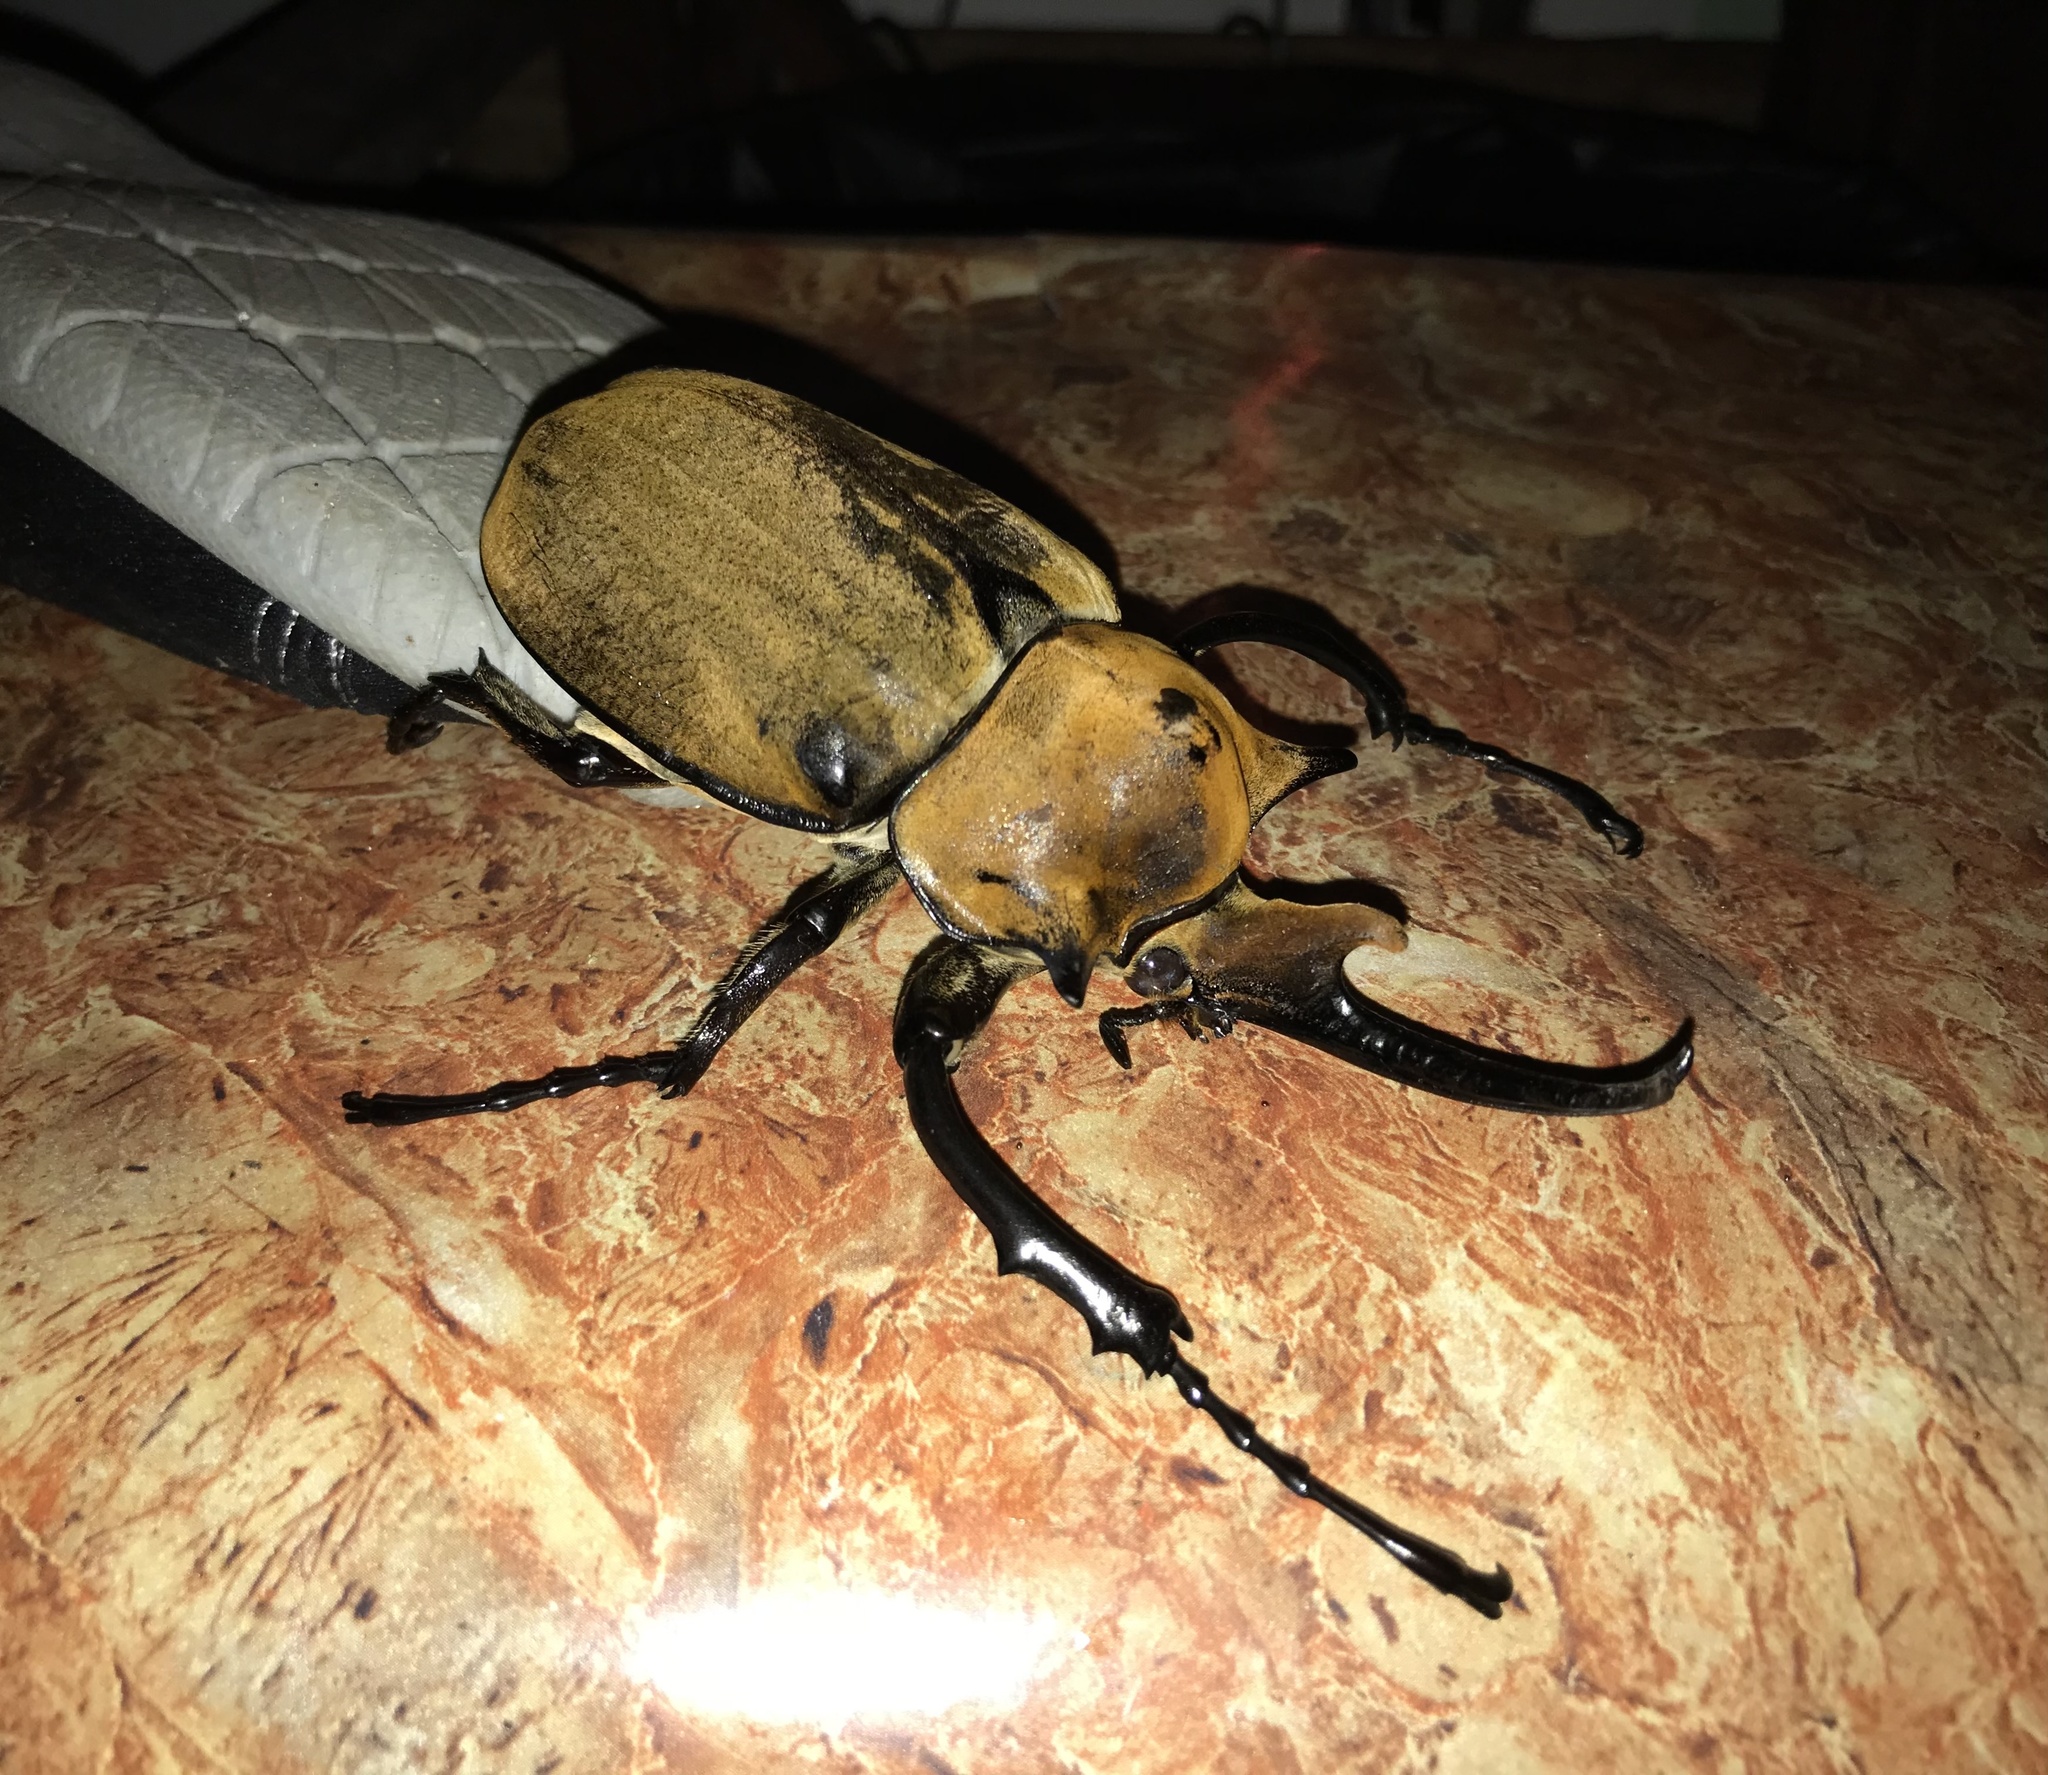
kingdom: Animalia
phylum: Arthropoda
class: Insecta
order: Coleoptera
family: Scarabaeidae
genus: Megasoma
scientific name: Megasoma elephas
